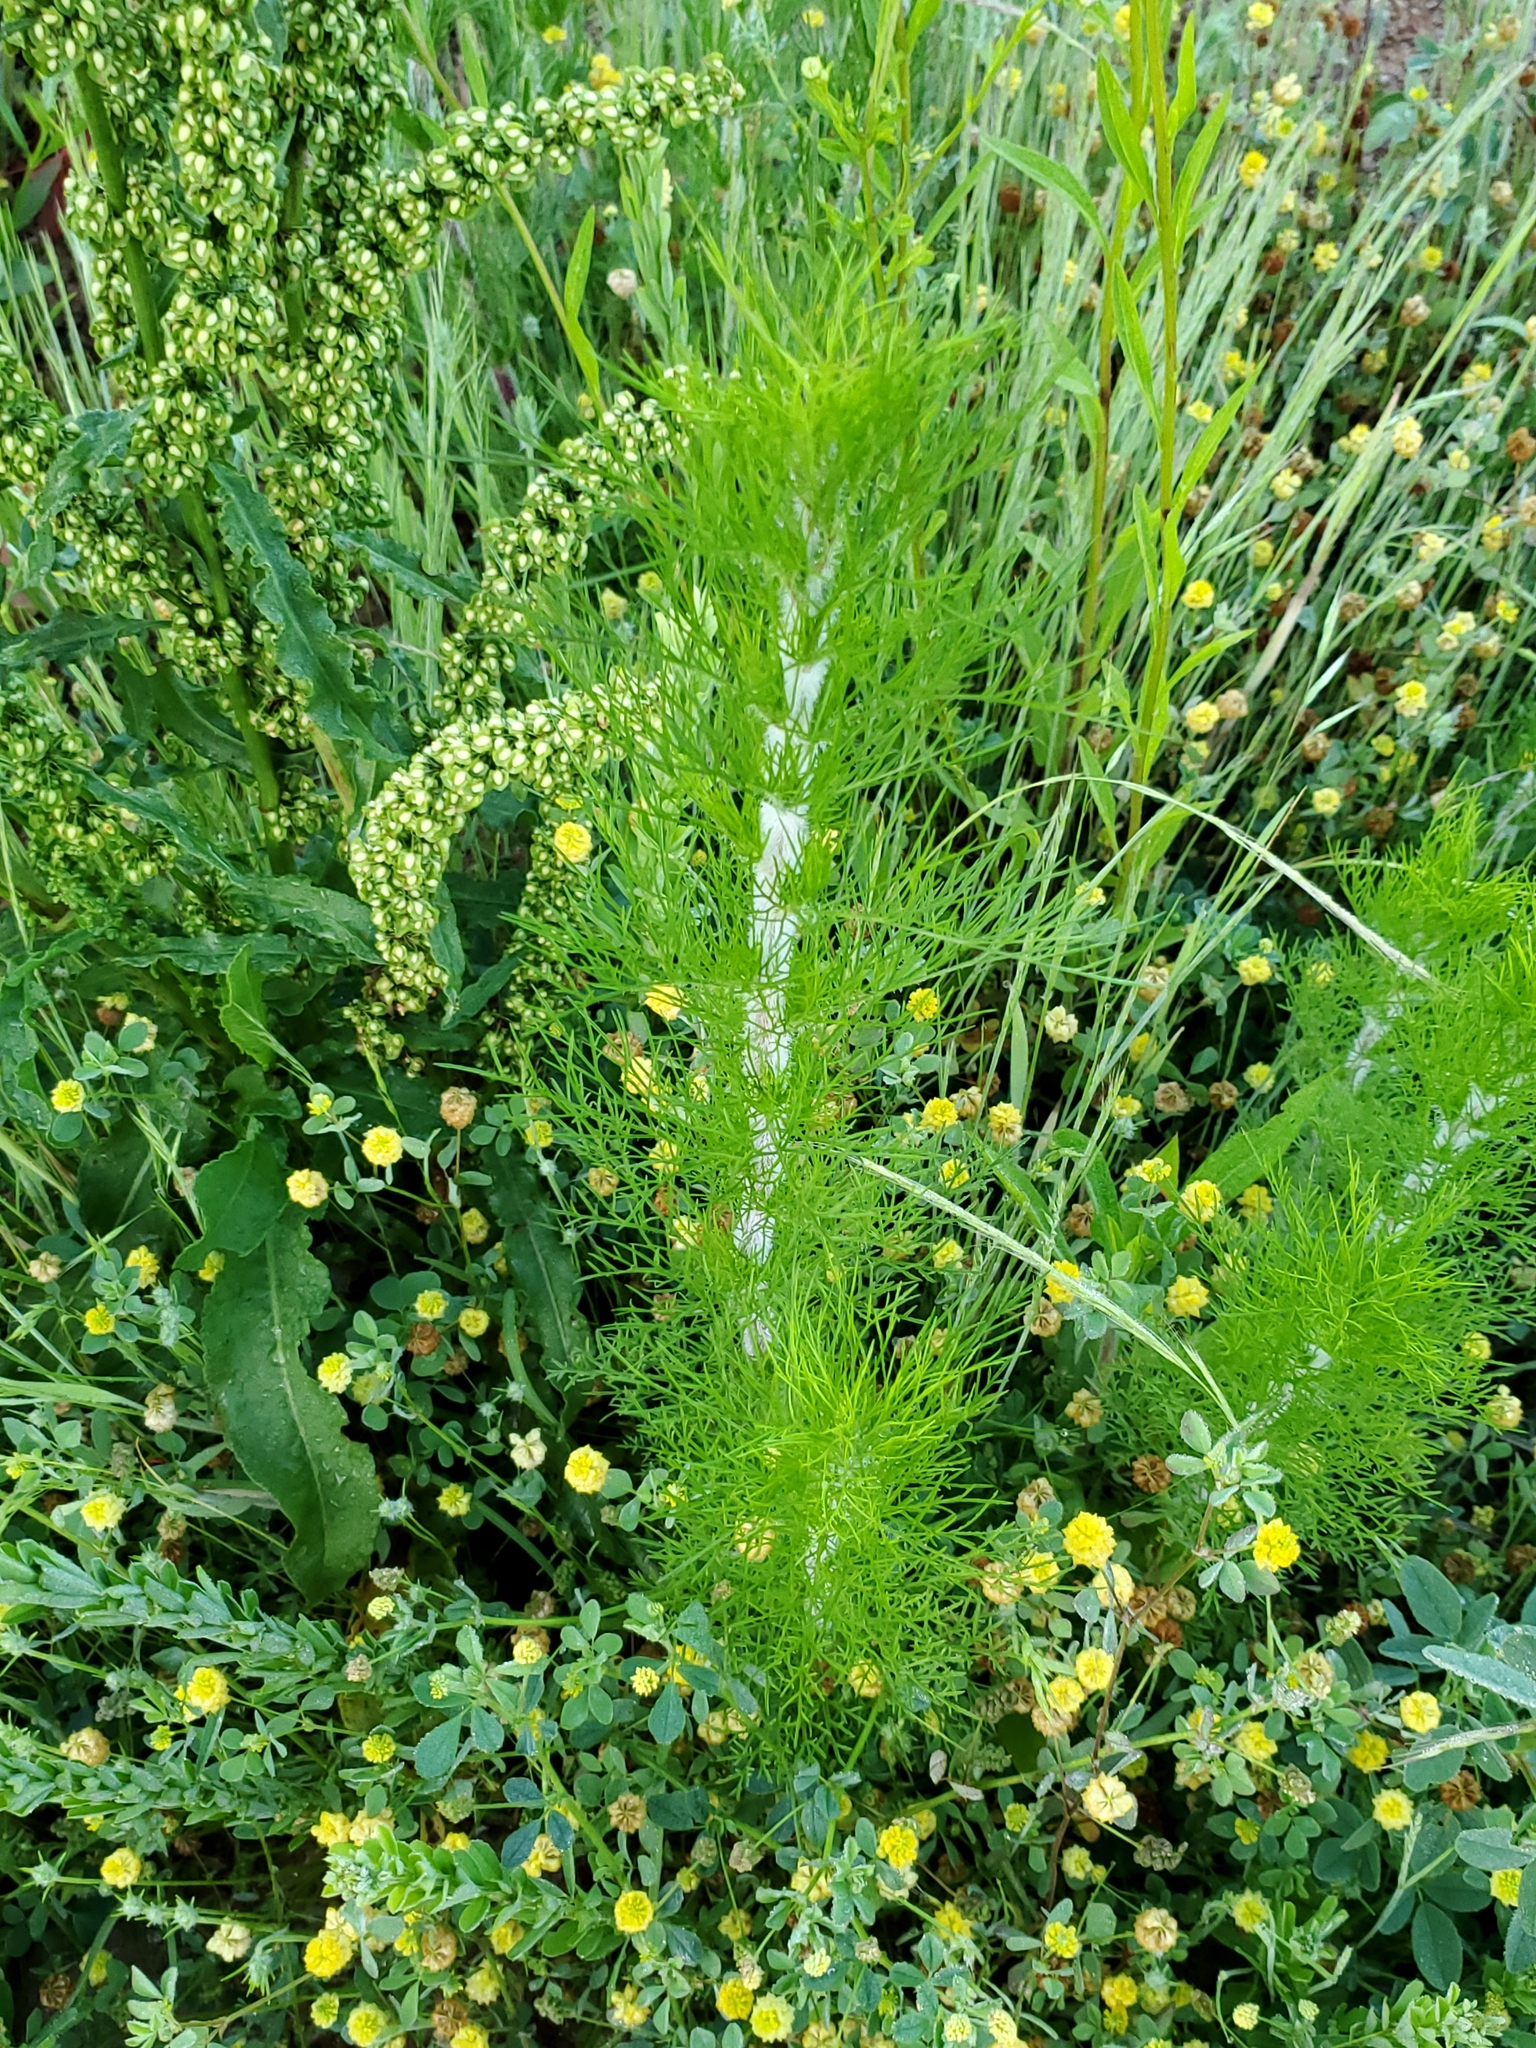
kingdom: Plantae
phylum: Tracheophyta
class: Magnoliopsida
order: Asterales
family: Asteraceae
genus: Eupatorium
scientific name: Eupatorium capillifolium
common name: Dog-fennel
